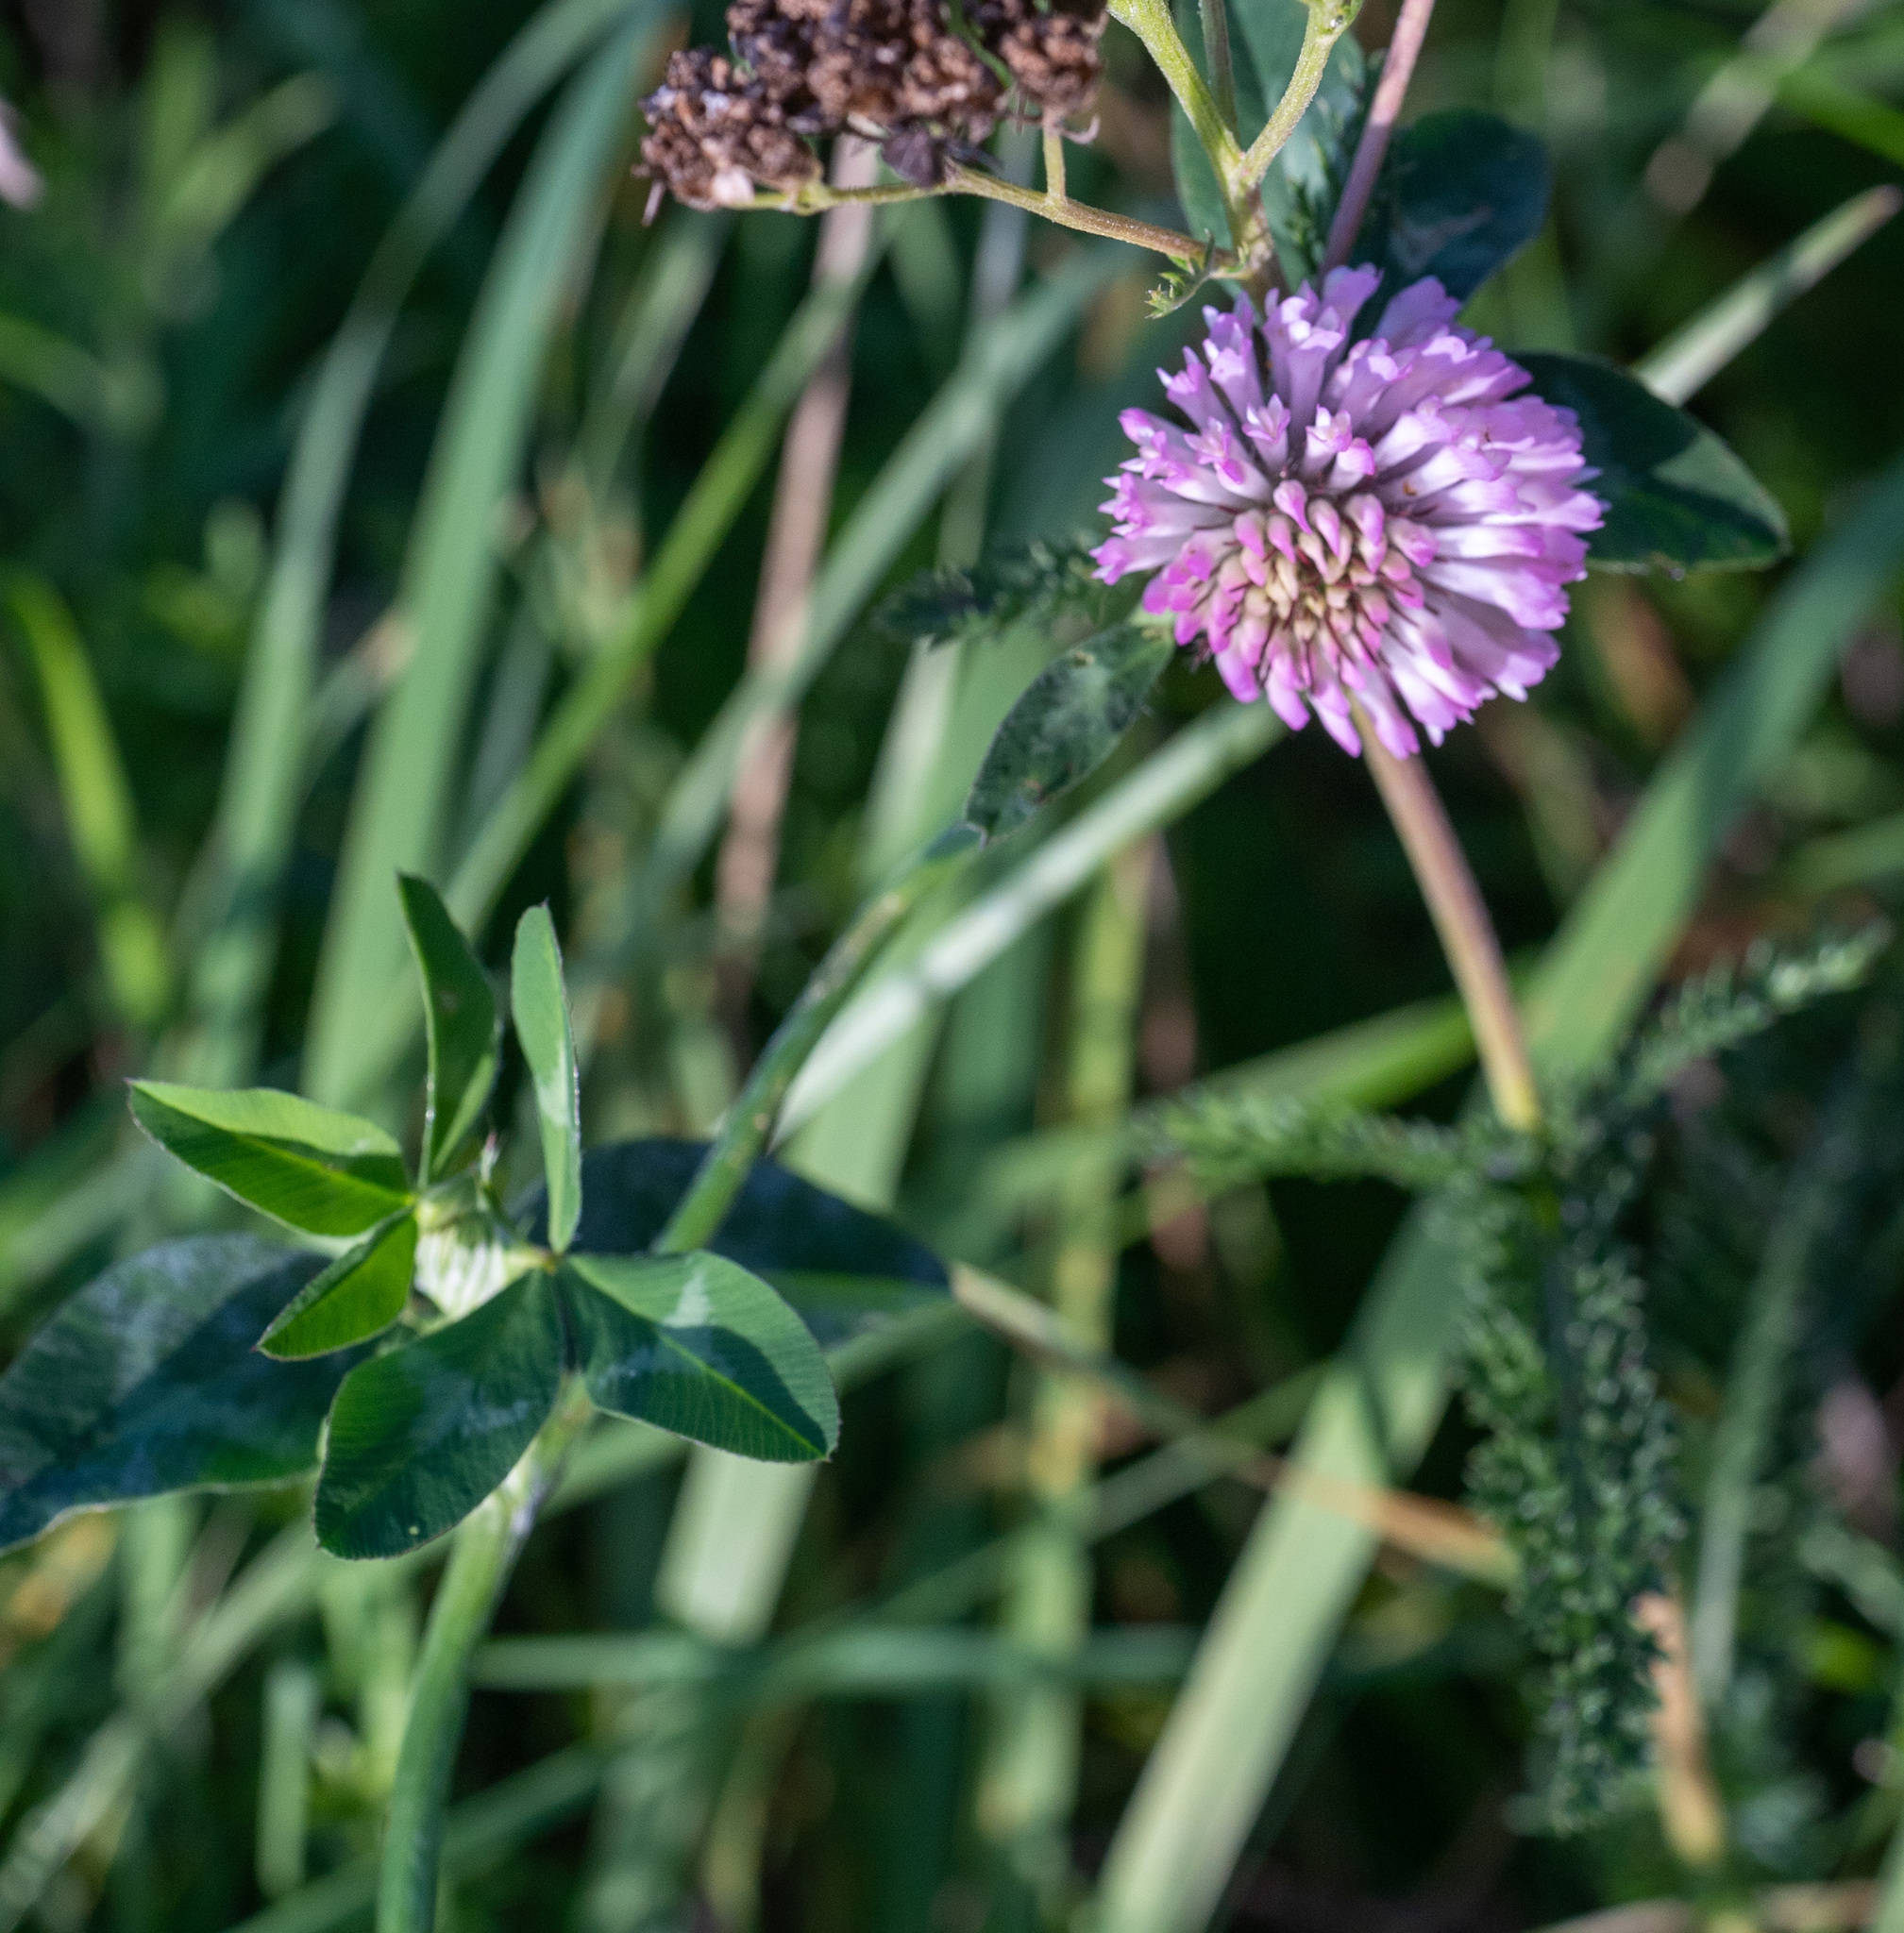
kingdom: Plantae
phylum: Tracheophyta
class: Magnoliopsida
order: Fabales
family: Fabaceae
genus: Trifolium
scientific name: Trifolium pratense
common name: Red clover
